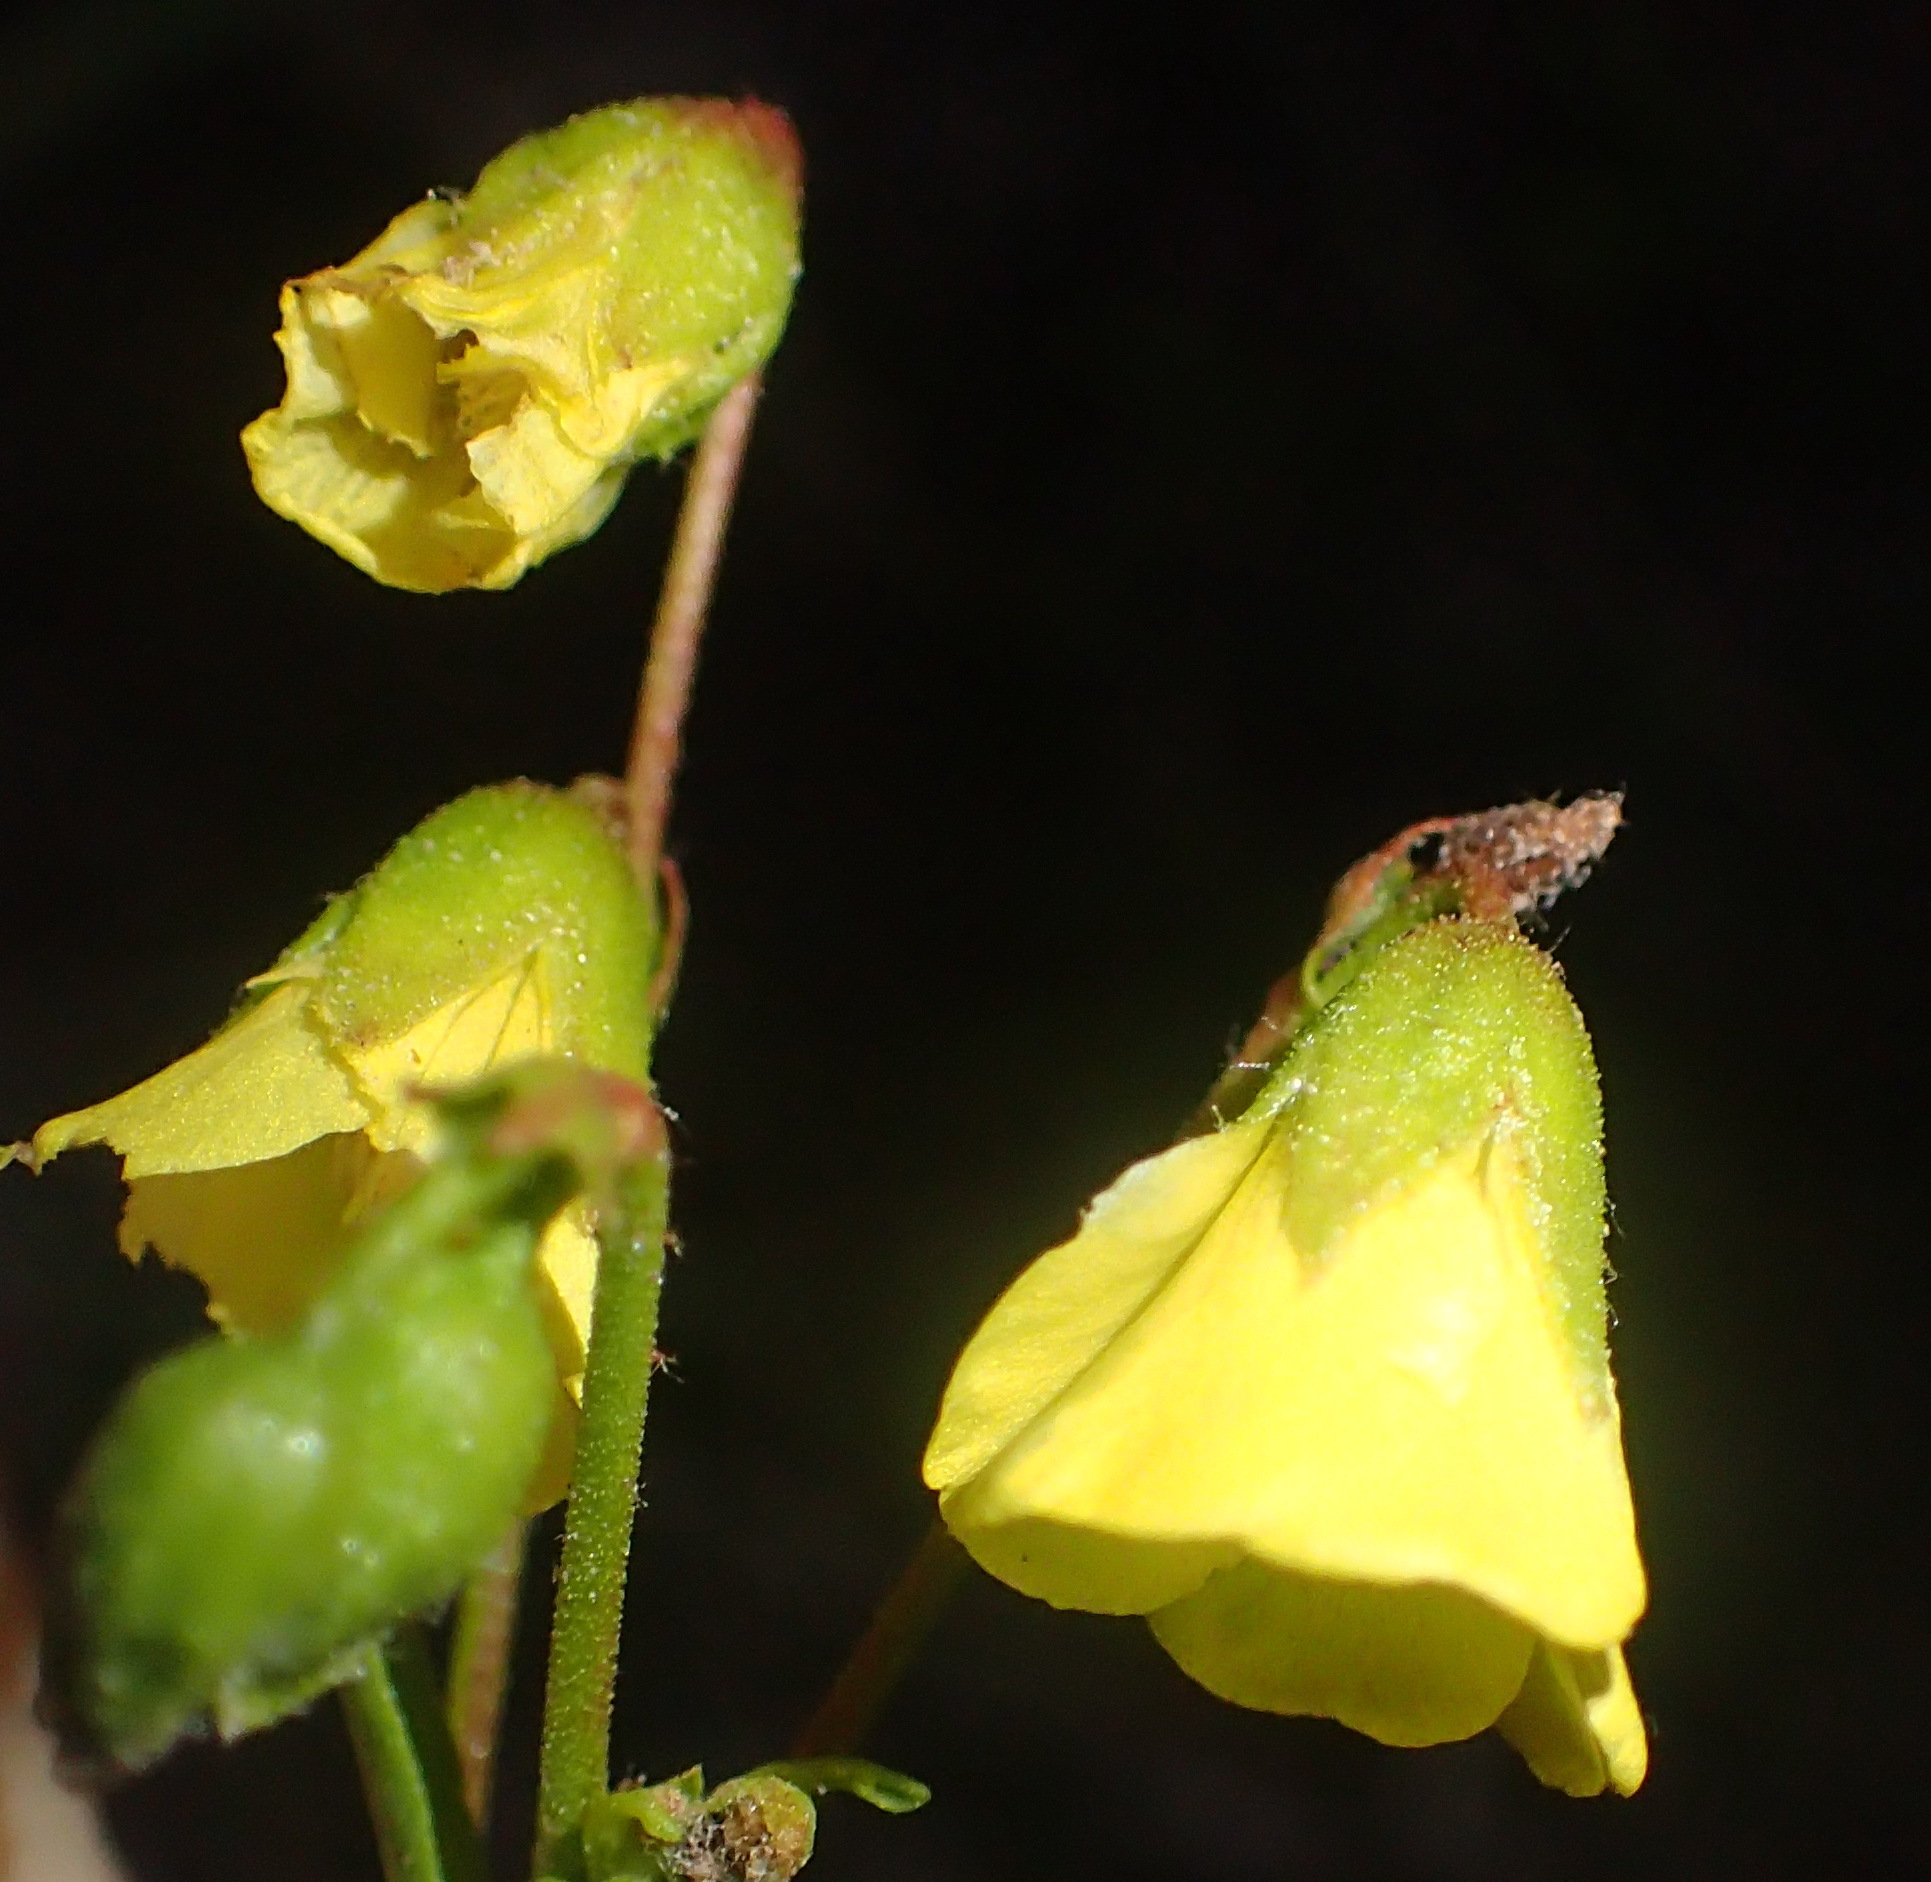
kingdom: Plantae
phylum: Tracheophyta
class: Magnoliopsida
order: Malvales
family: Malvaceae
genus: Hermannia
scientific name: Hermannia saccifera
